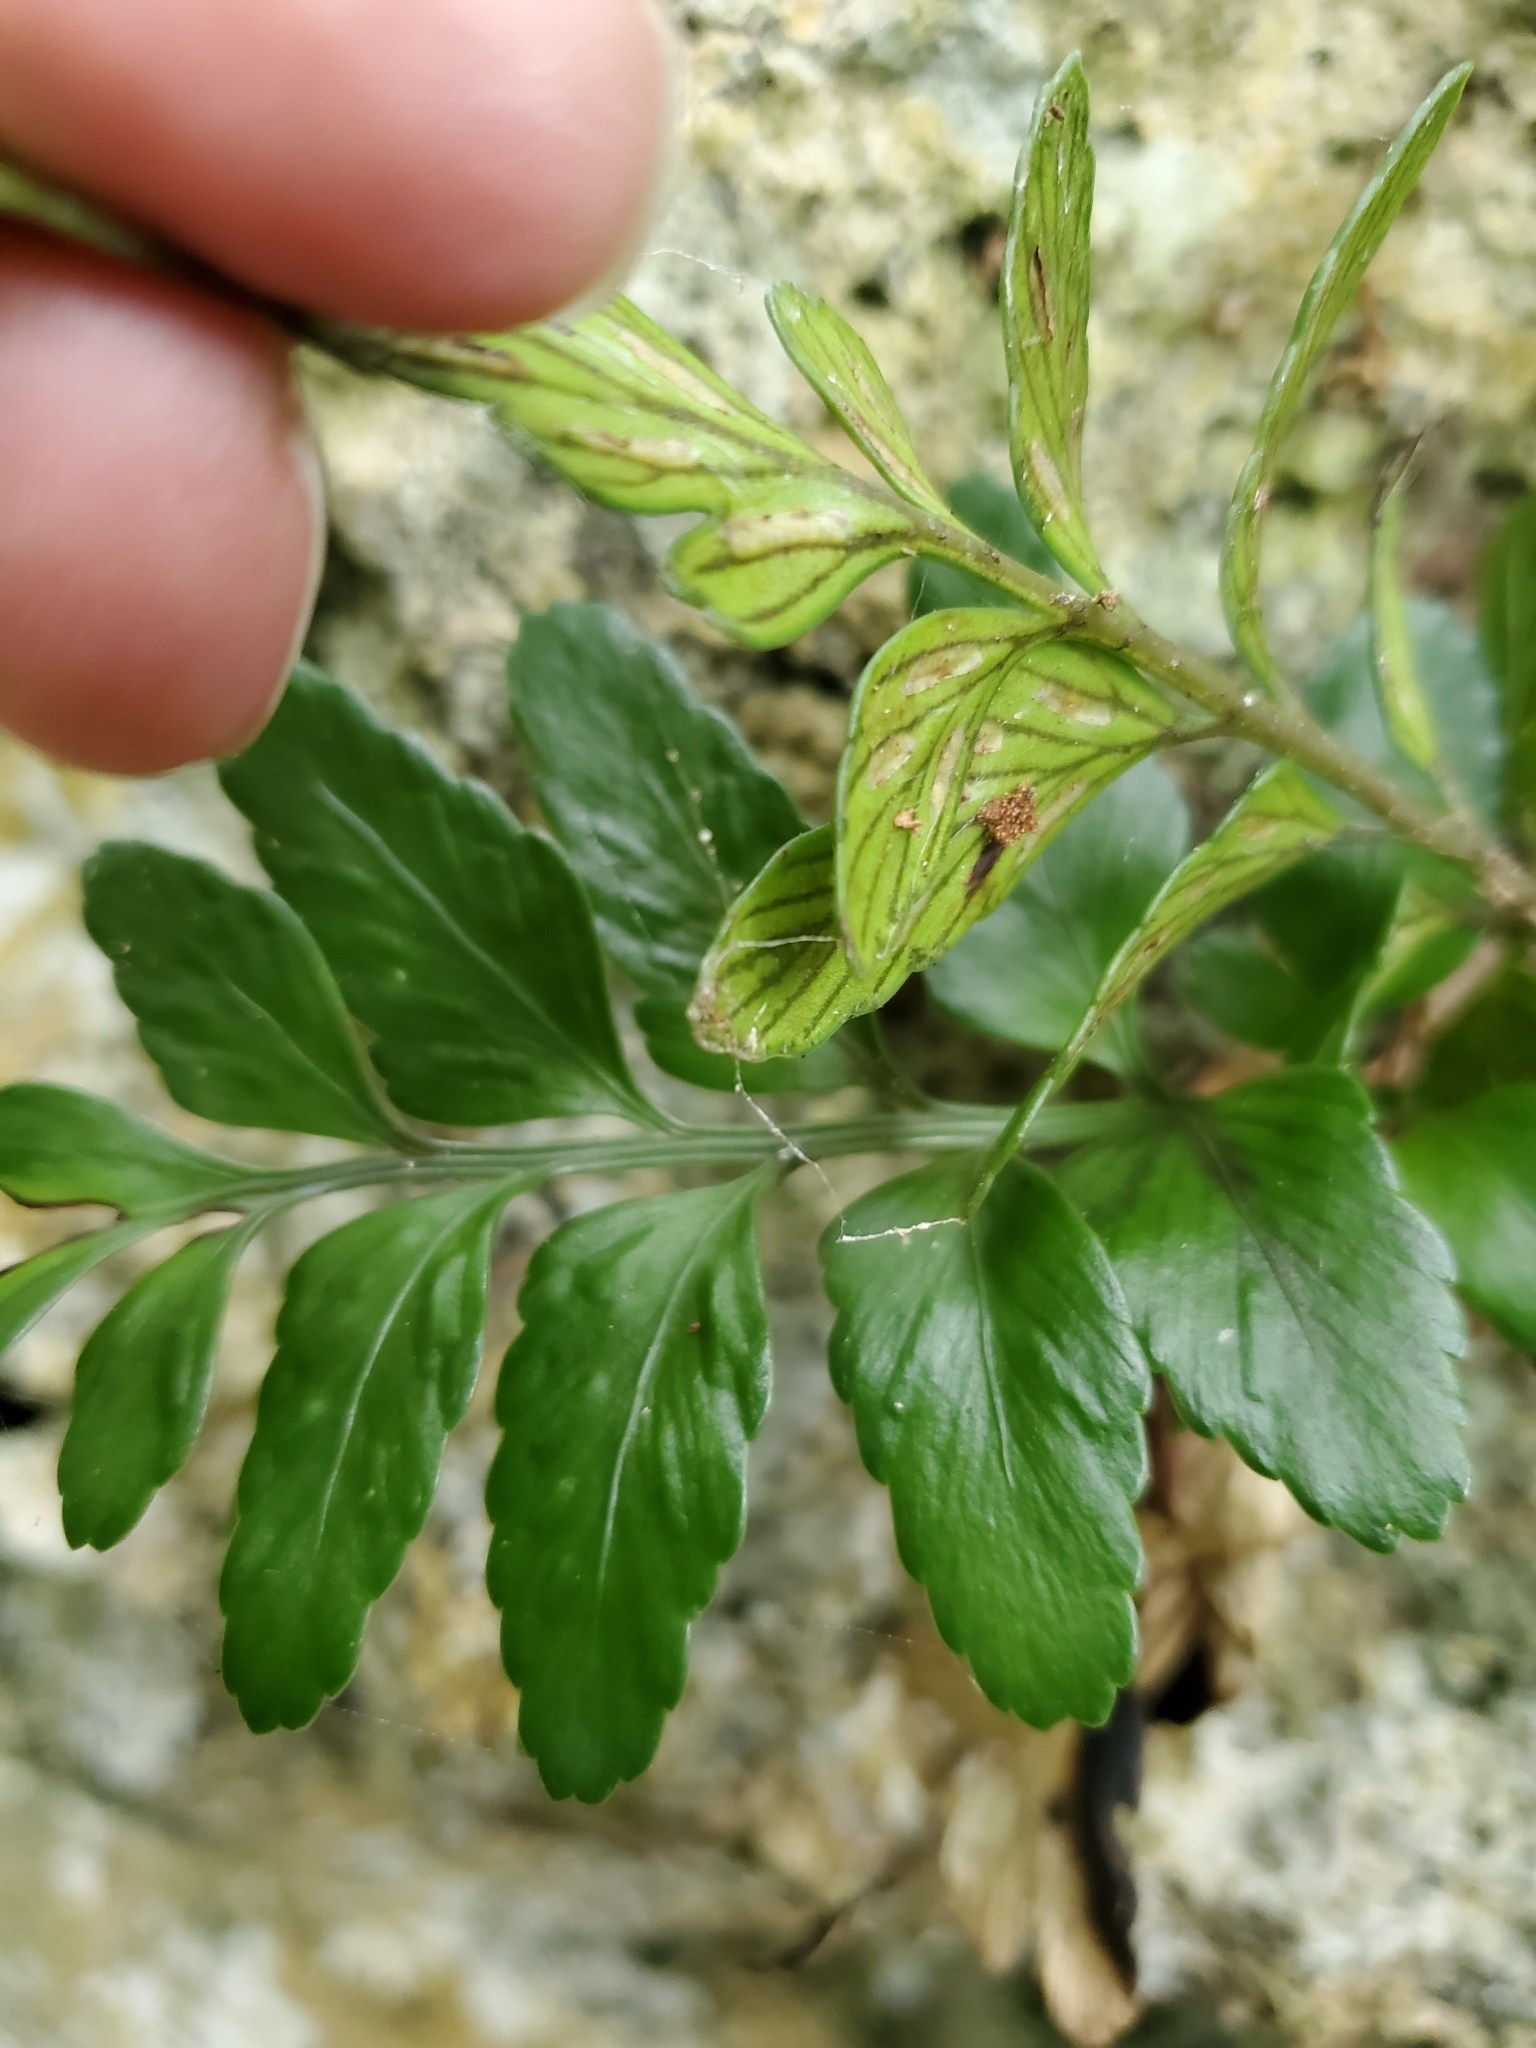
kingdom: Plantae
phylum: Tracheophyta
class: Polypodiopsida
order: Polypodiales
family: Aspleniaceae
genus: Asplenium
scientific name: Asplenium lyallii
